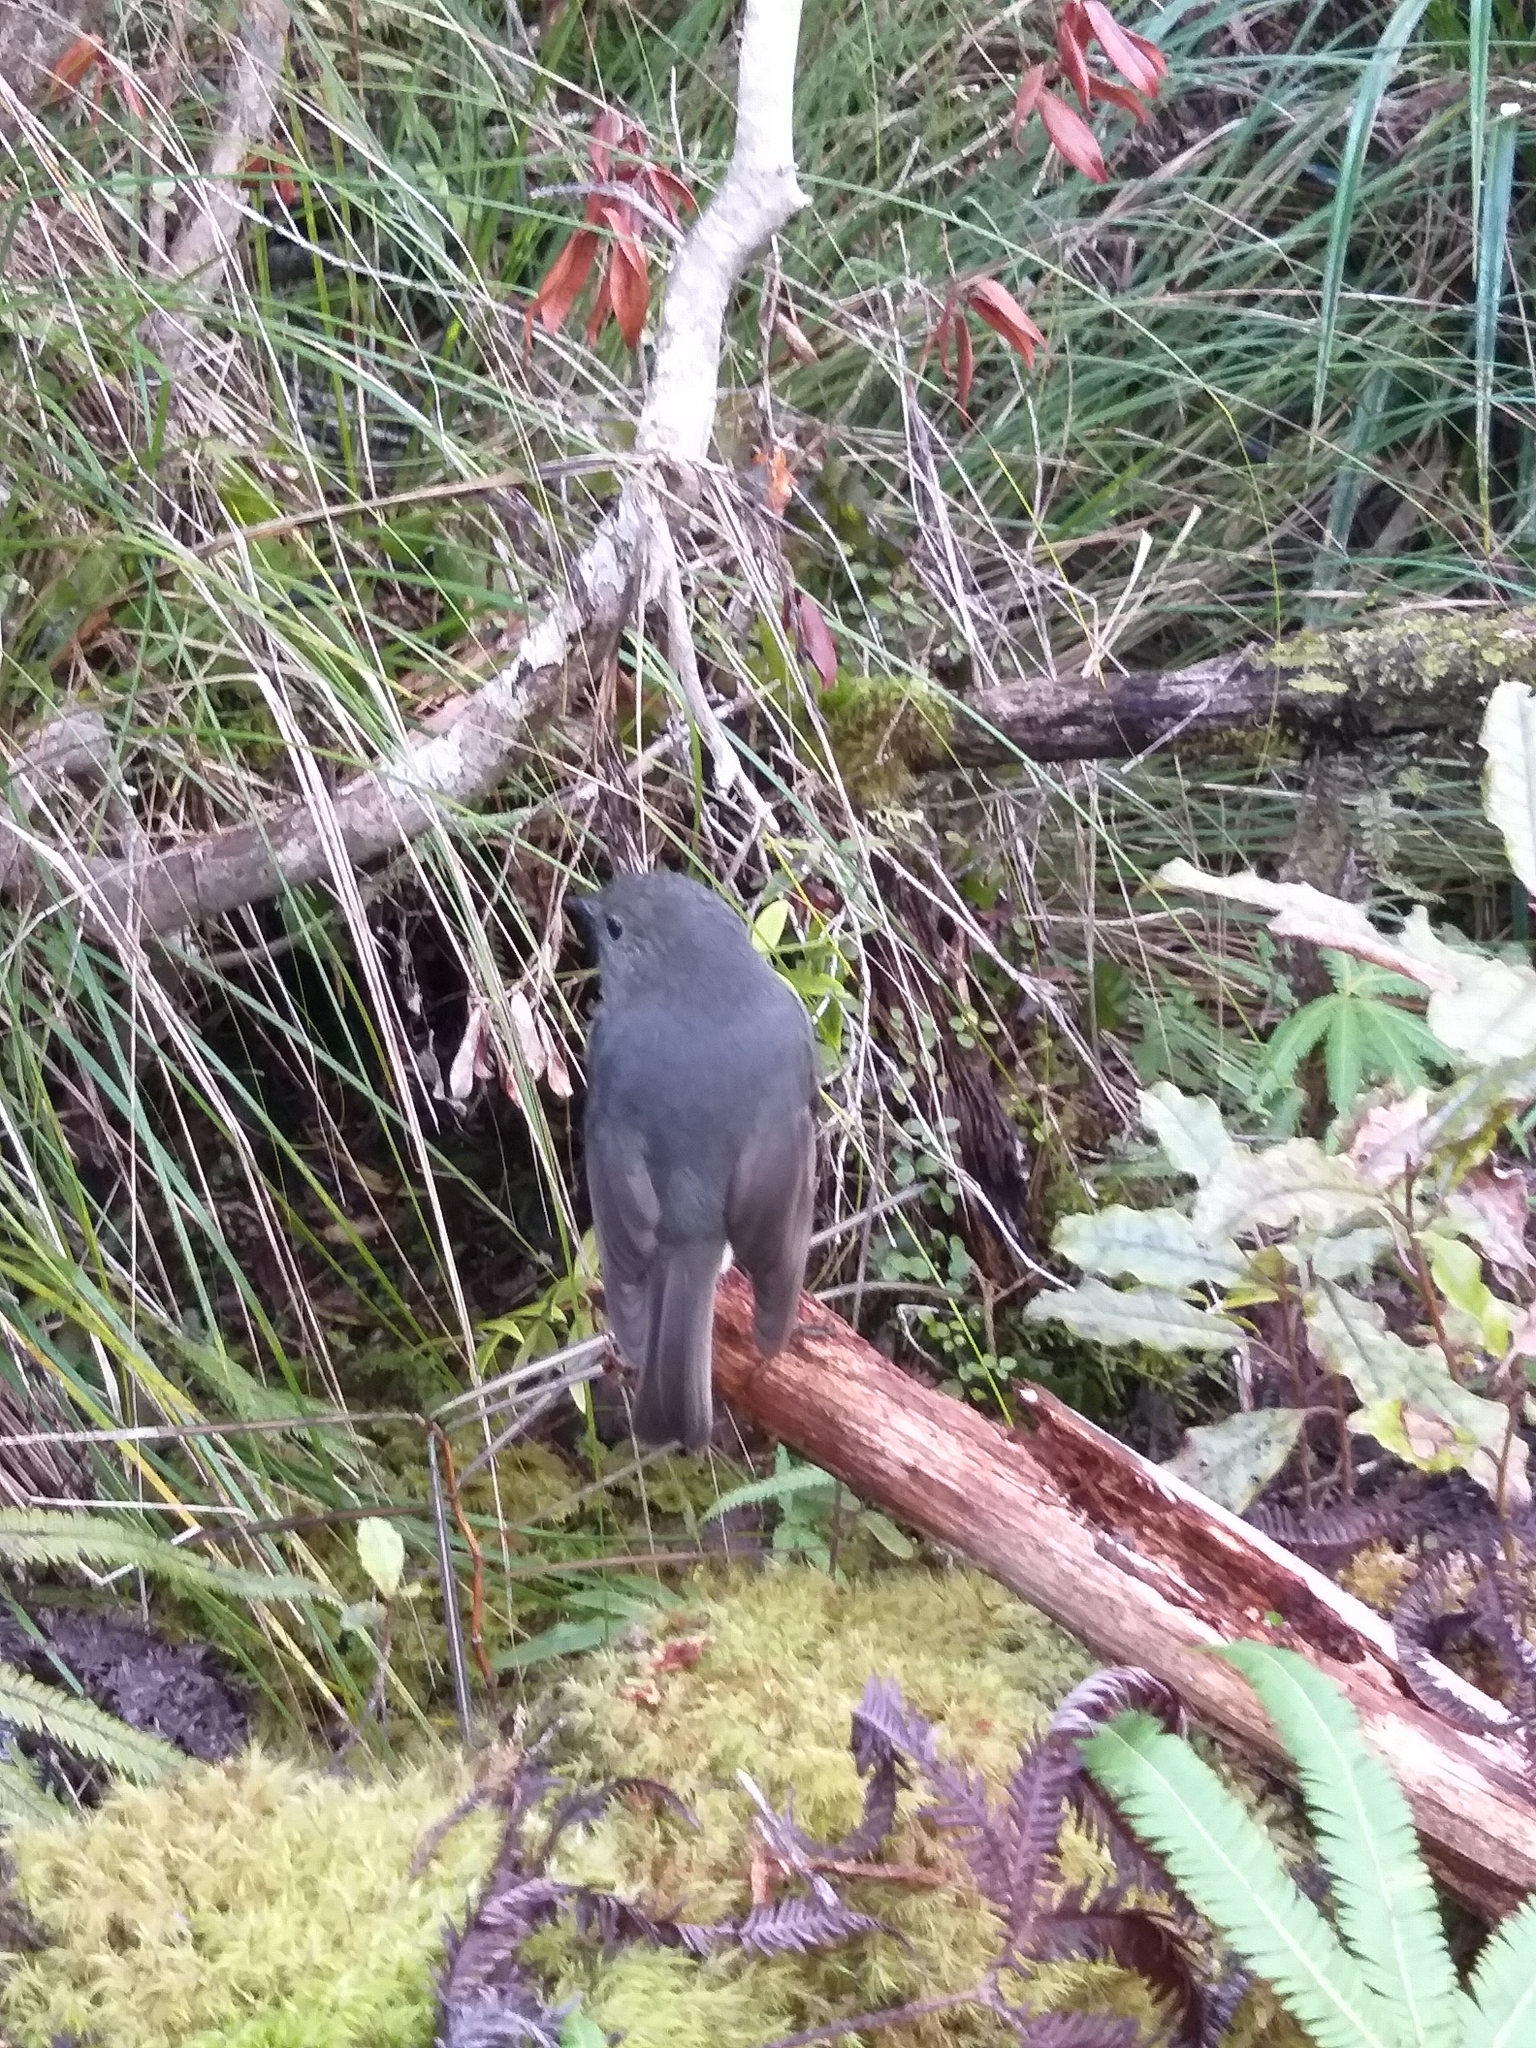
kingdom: Animalia
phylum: Chordata
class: Aves
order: Passeriformes
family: Petroicidae
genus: Petroica
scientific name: Petroica australis
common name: New zealand robin
